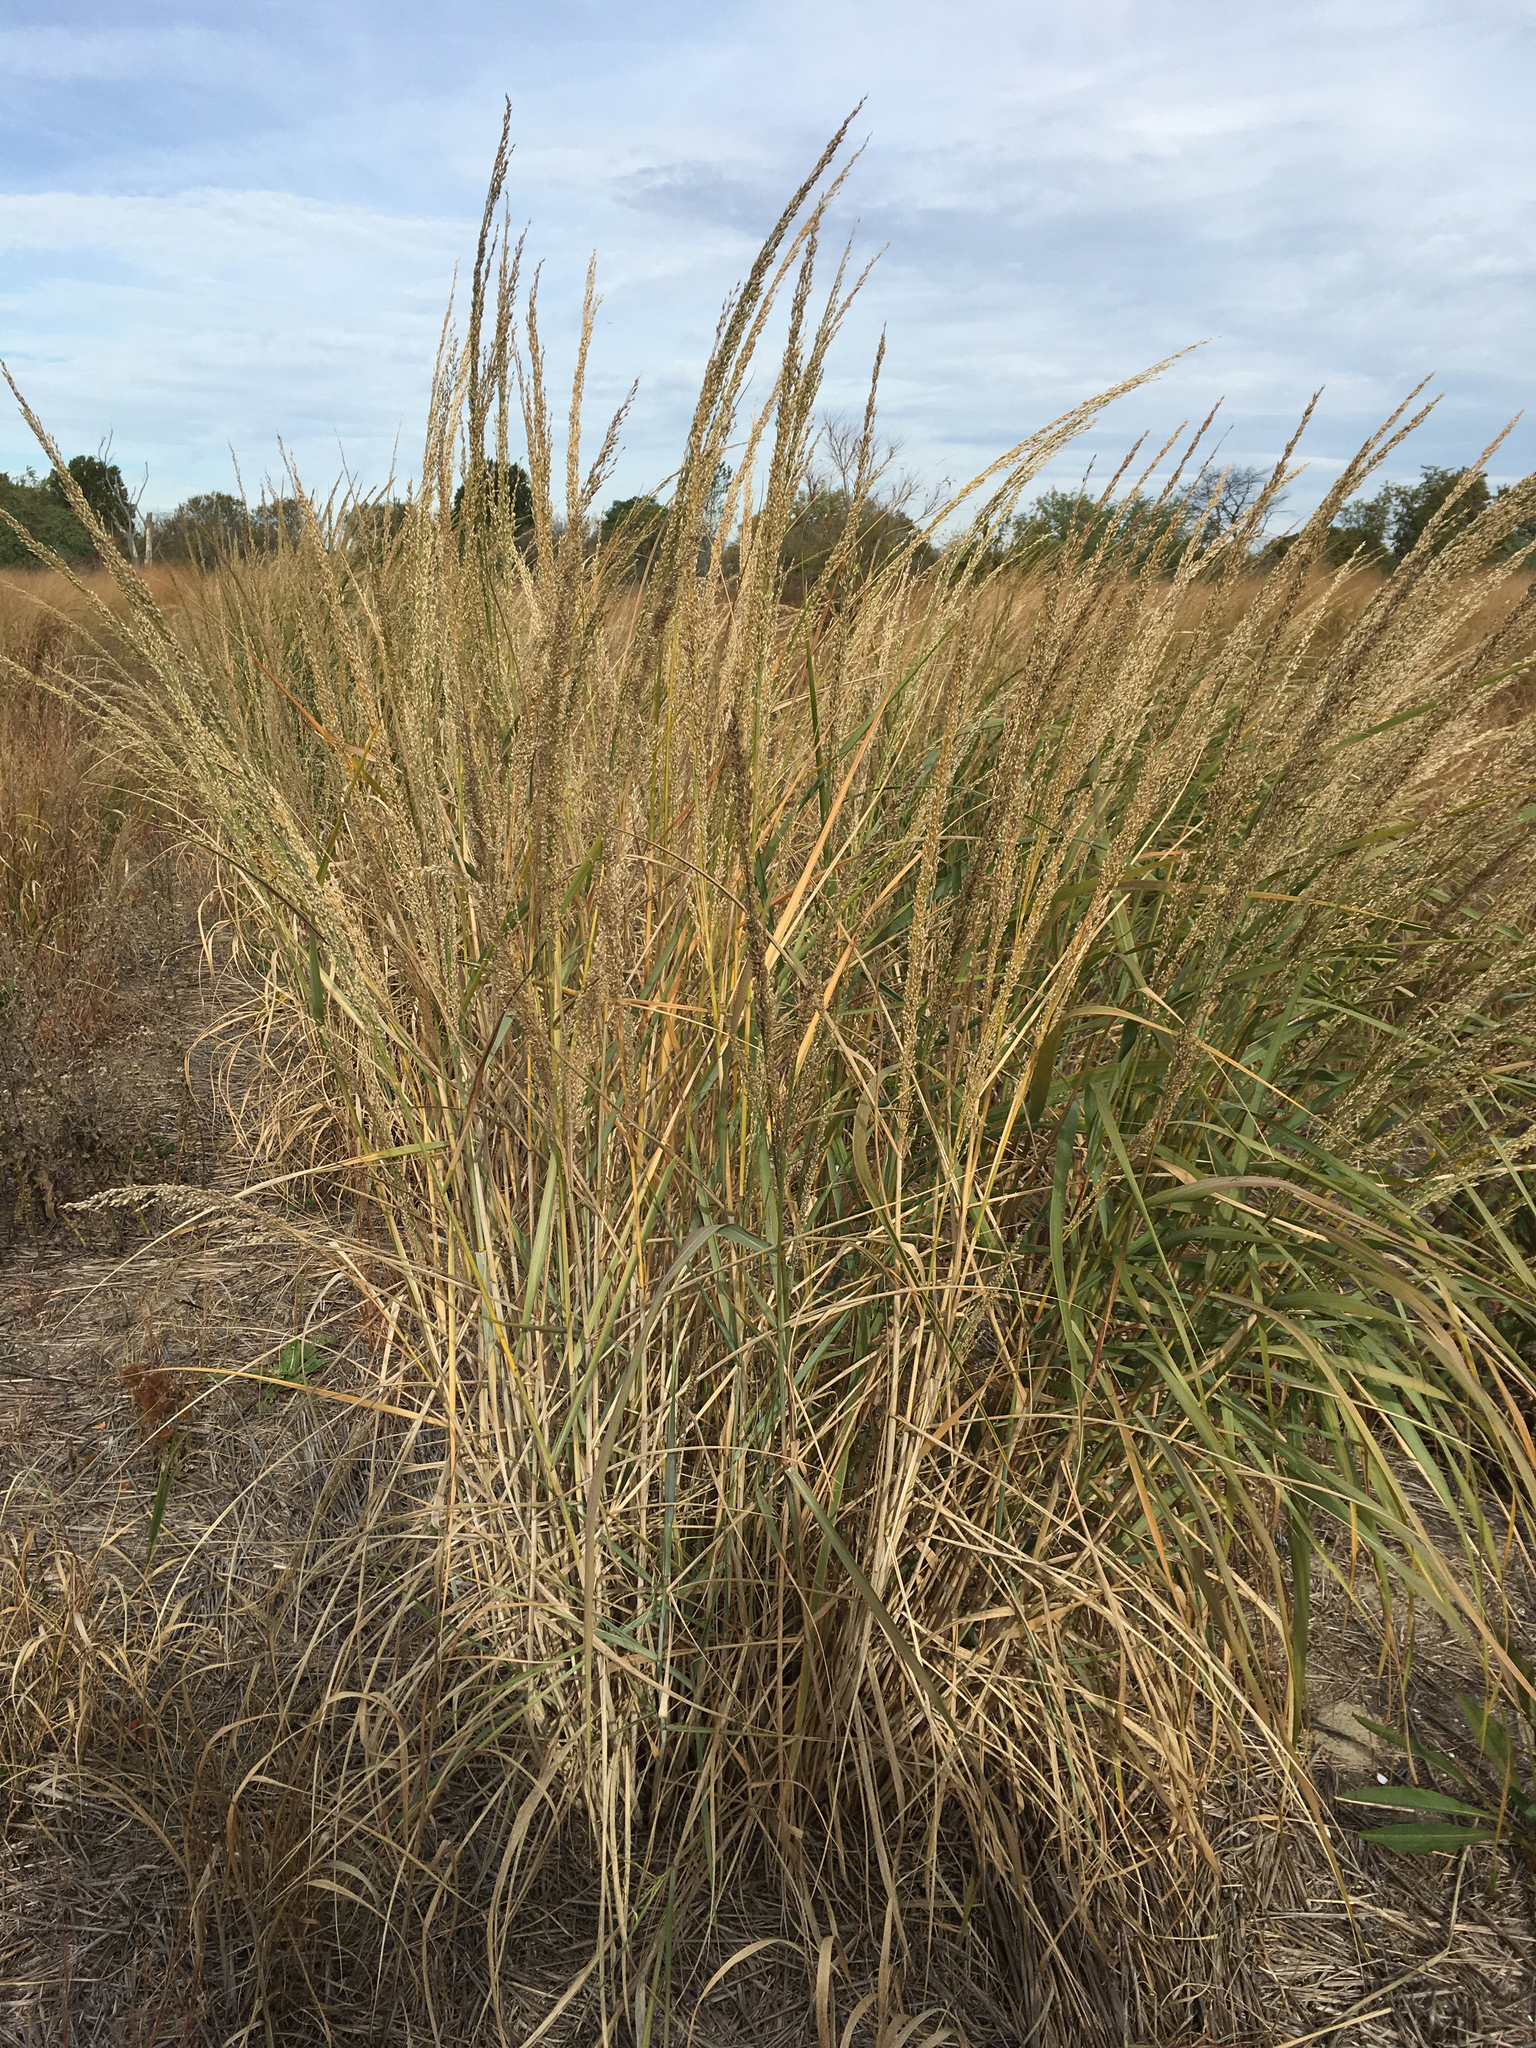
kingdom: Plantae
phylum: Tracheophyta
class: Liliopsida
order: Poales
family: Poaceae
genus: Panicum
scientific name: Panicum amarum
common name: Bitter panicum
